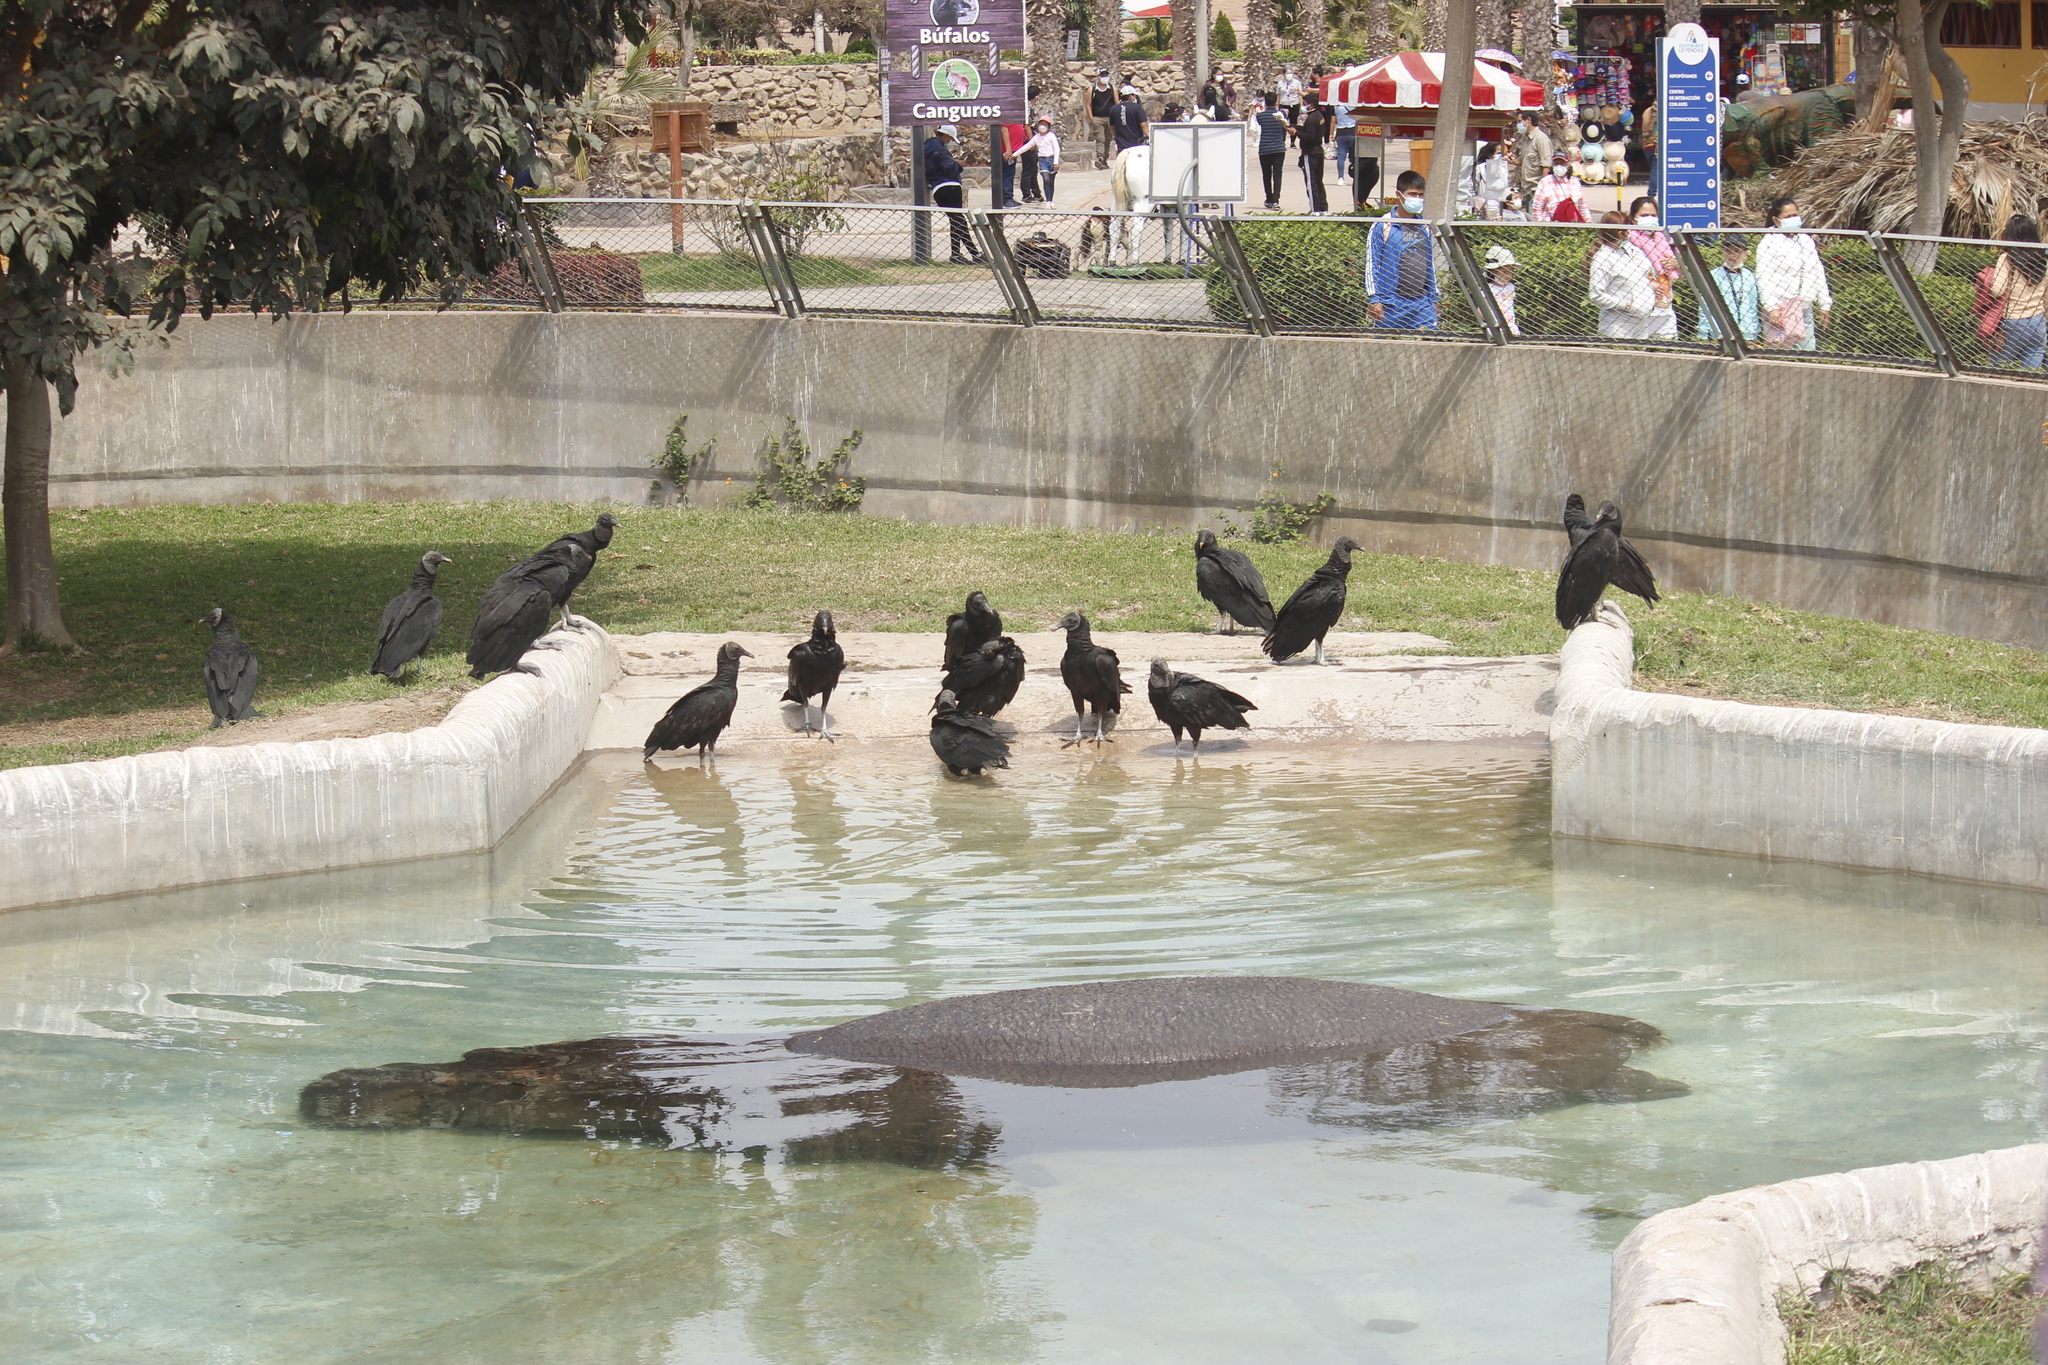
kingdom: Animalia
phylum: Chordata
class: Aves
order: Accipitriformes
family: Cathartidae
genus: Coragyps
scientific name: Coragyps atratus
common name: Black vulture
